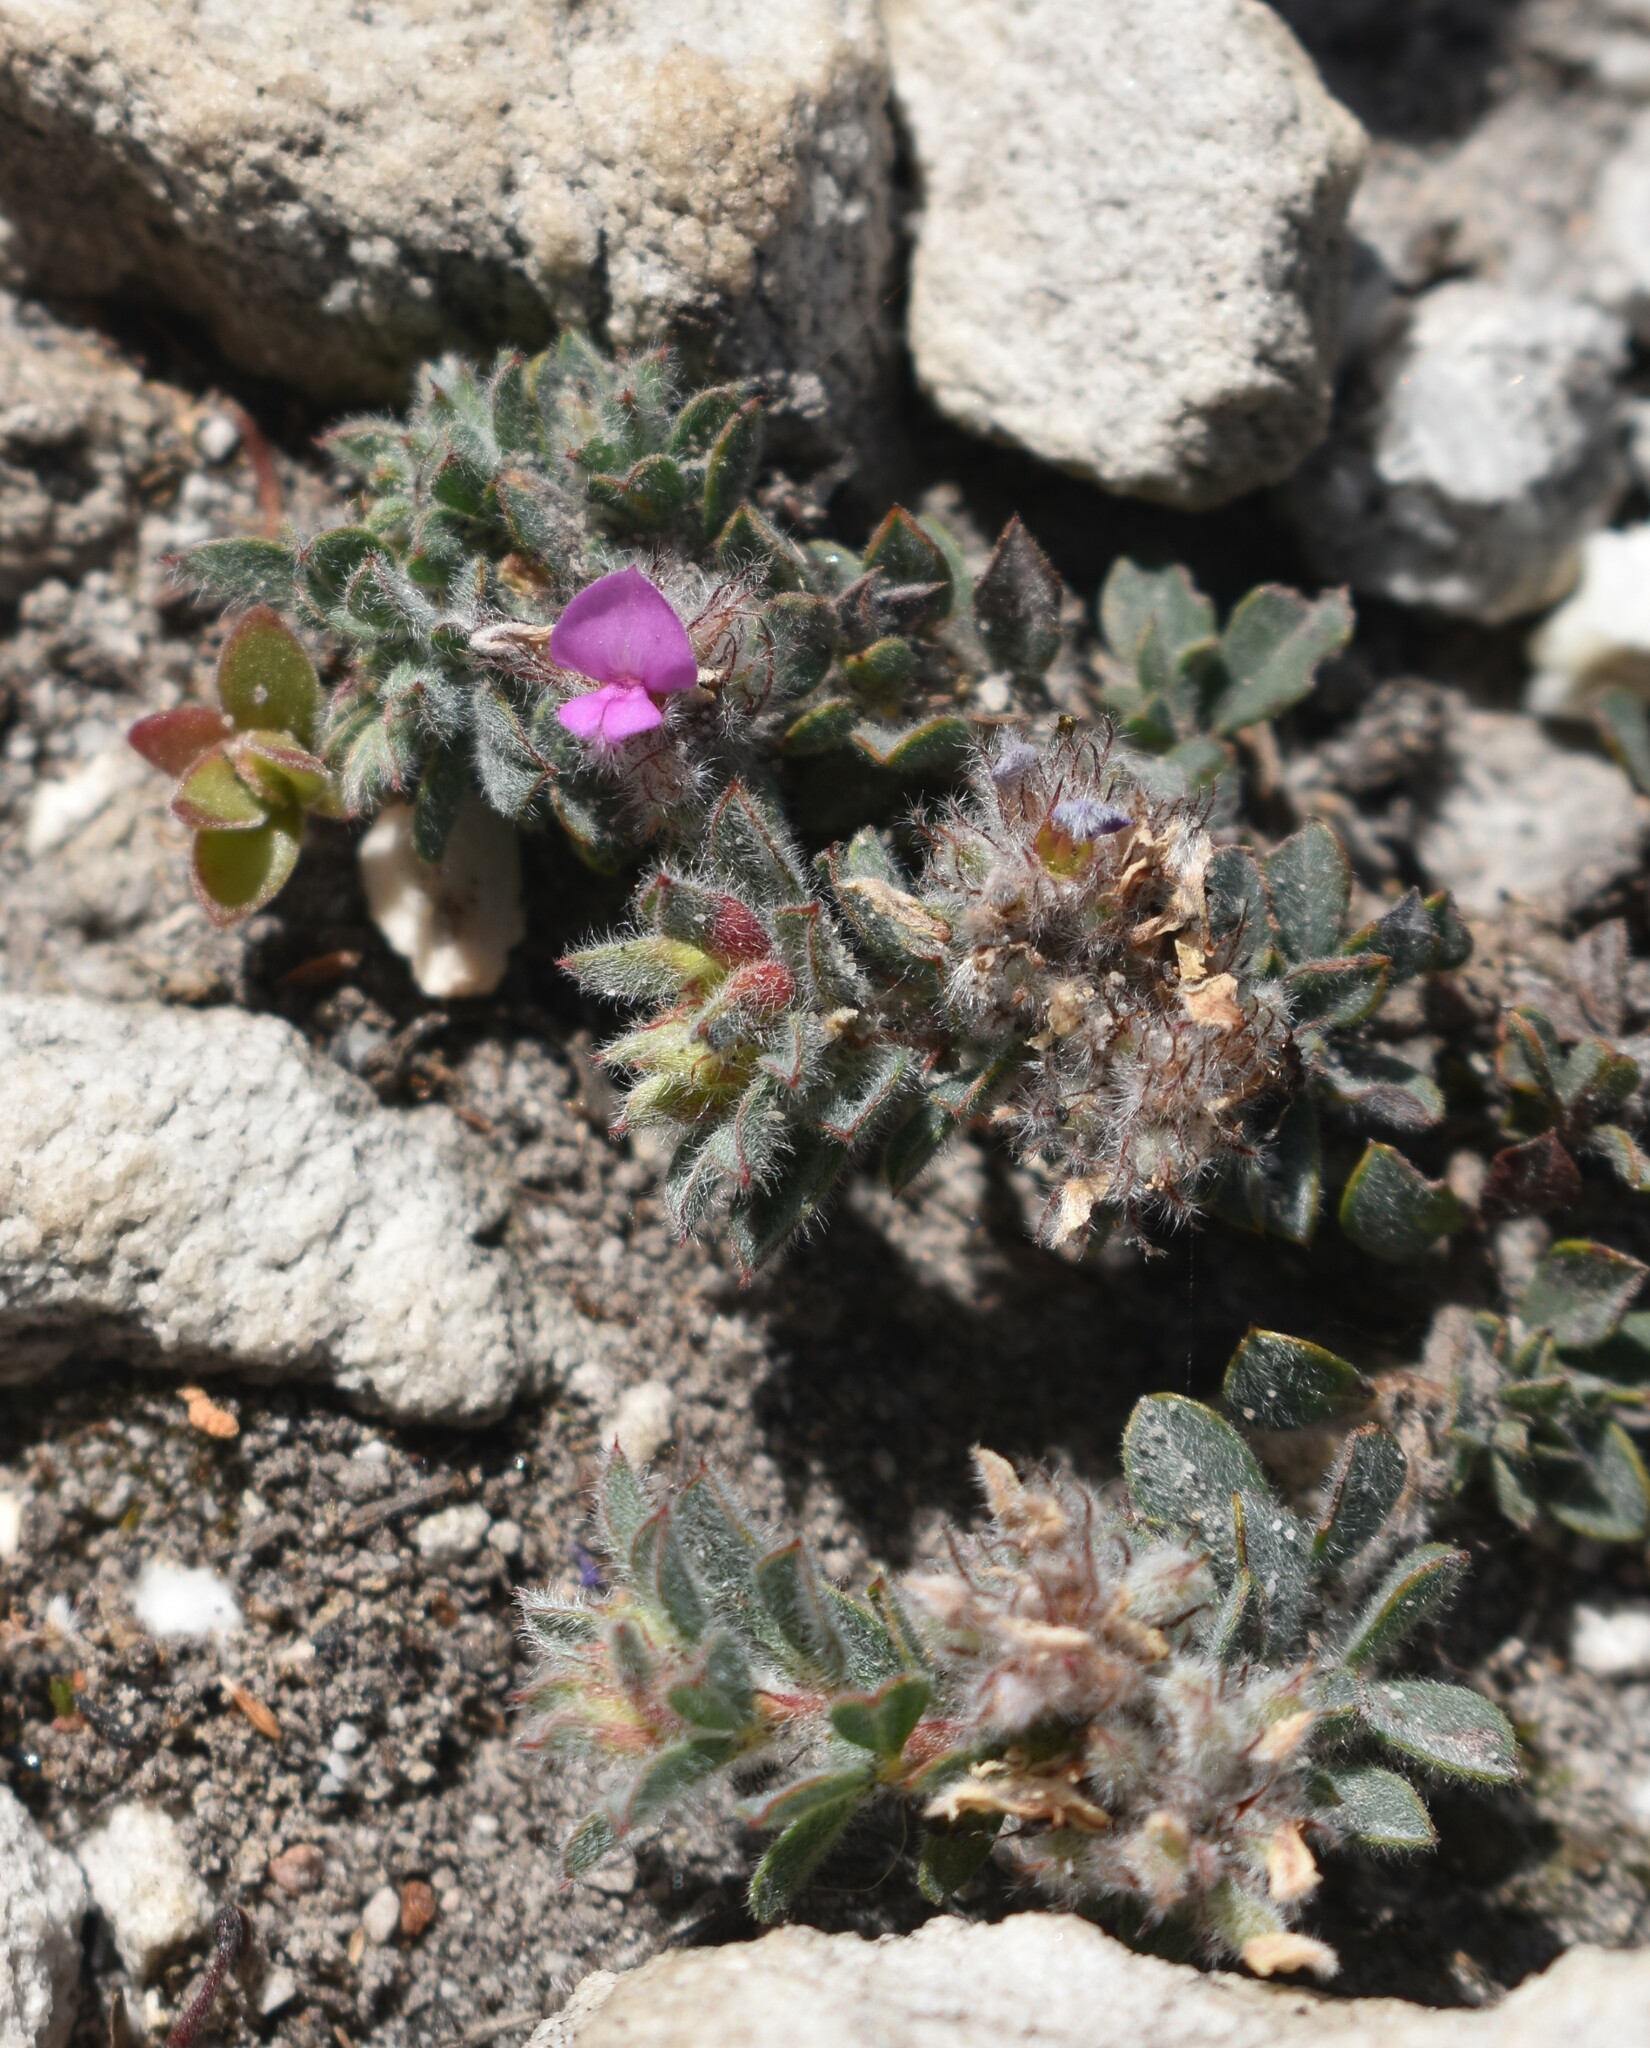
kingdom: Plantae
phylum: Tracheophyta
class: Magnoliopsida
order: Fabales
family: Fabaceae
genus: Indigofera
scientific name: Indigofera glomerata
